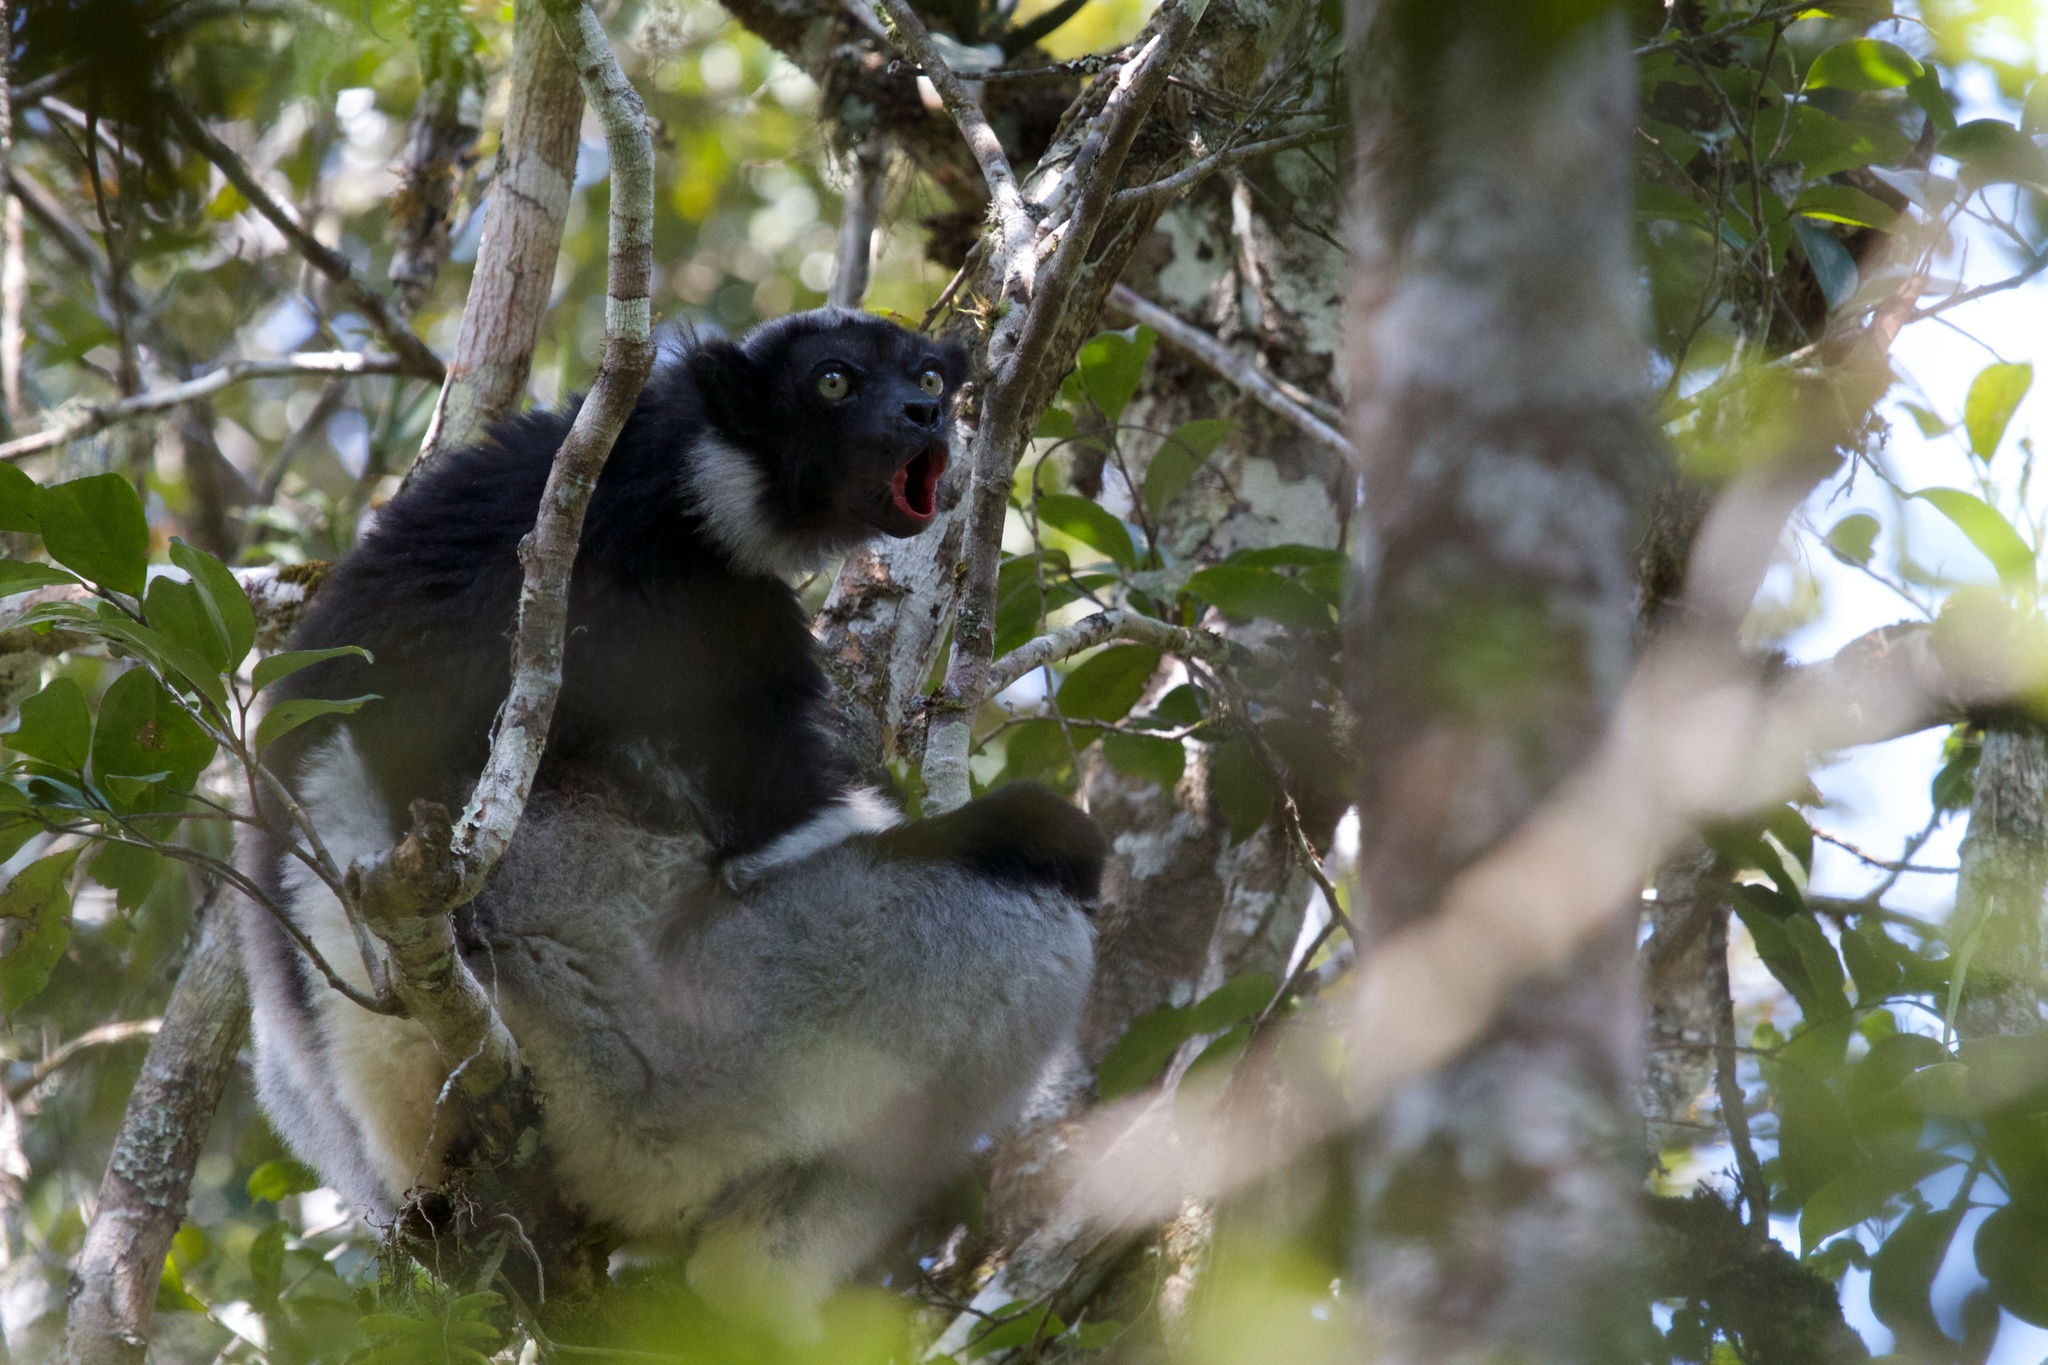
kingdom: Animalia
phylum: Chordata
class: Mammalia
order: Primates
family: Indriidae
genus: Indri
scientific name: Indri indri
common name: Indri
